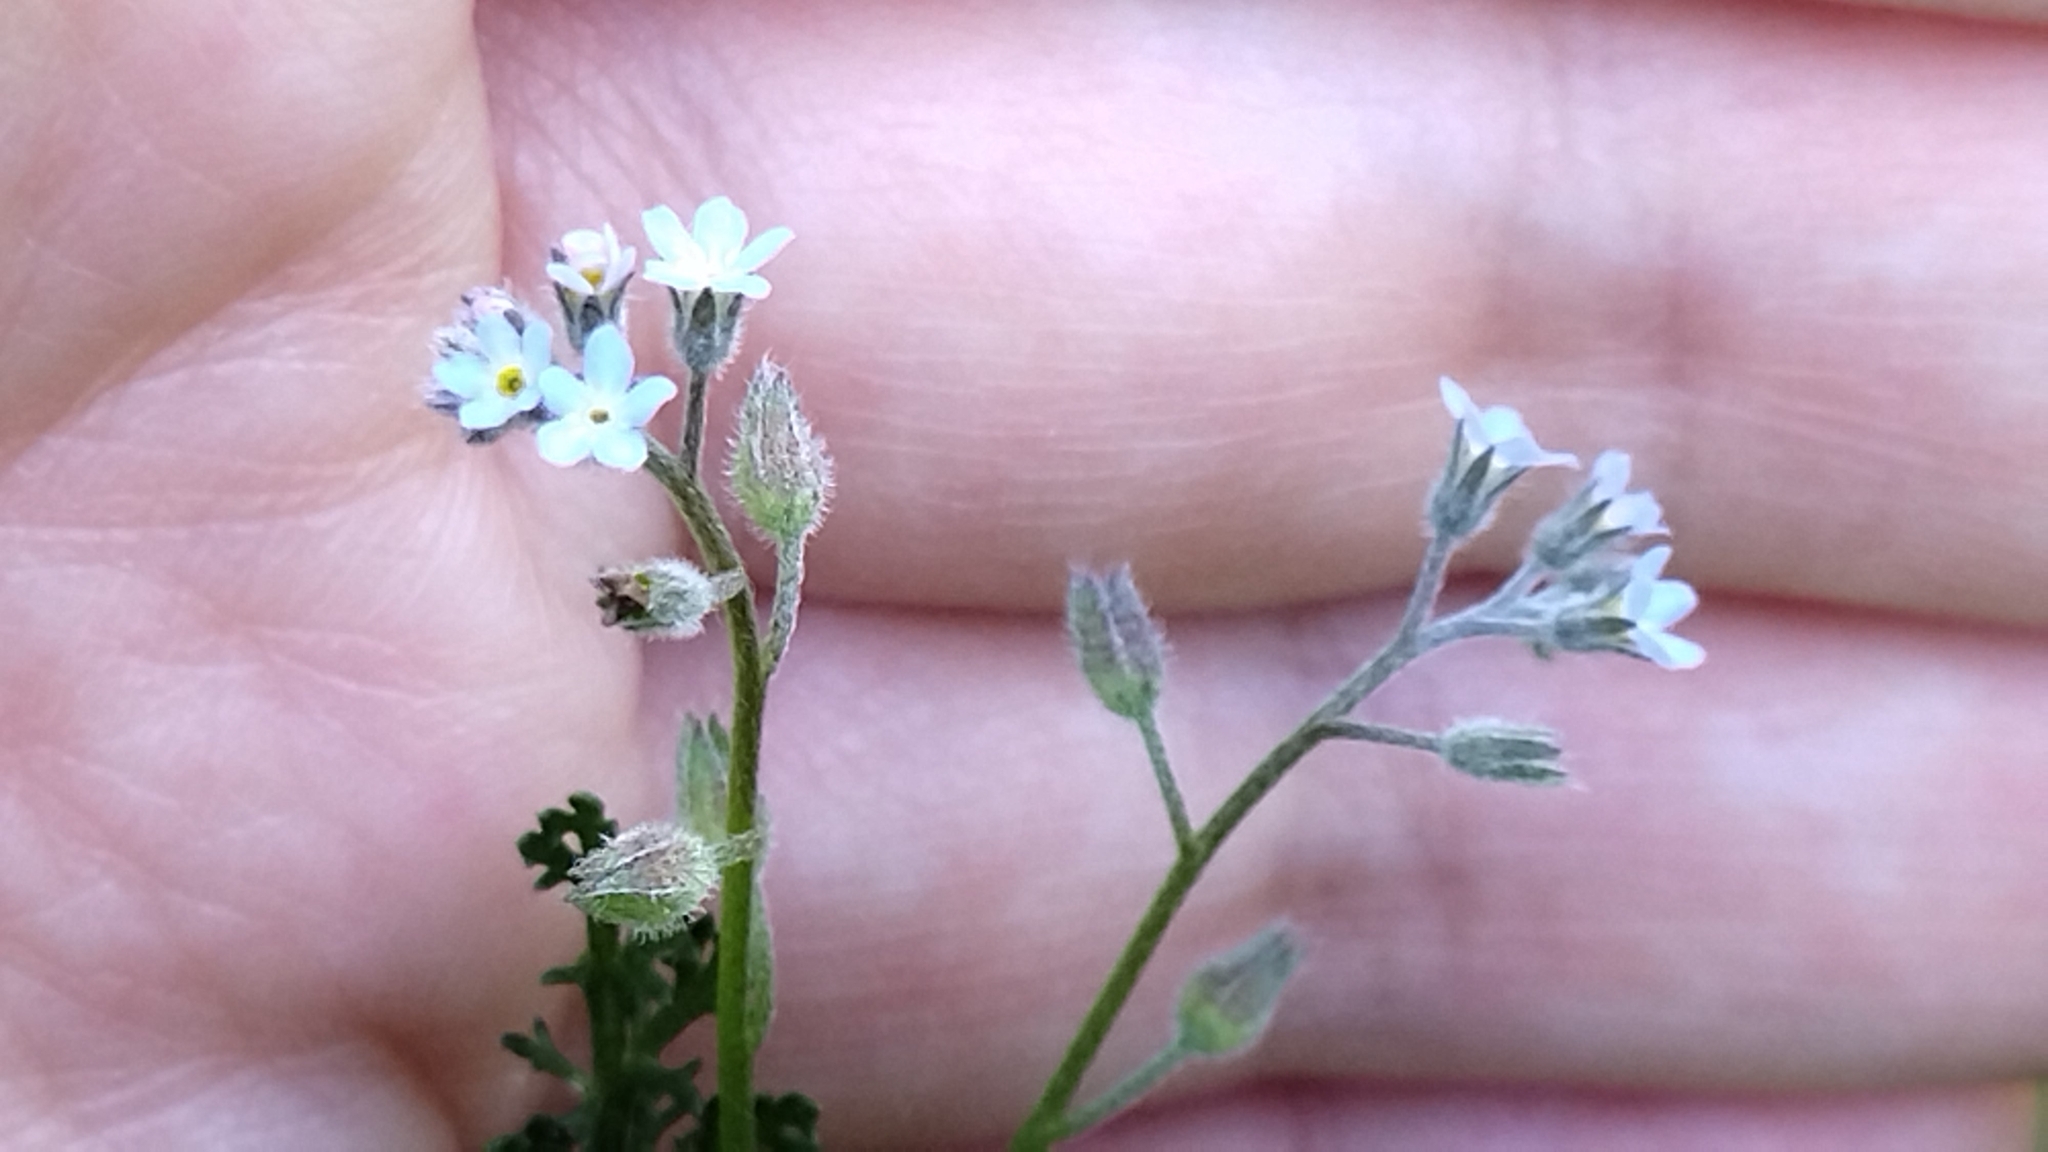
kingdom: Plantae
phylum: Tracheophyta
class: Magnoliopsida
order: Boraginales
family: Boraginaceae
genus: Myosotis
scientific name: Myosotis arvensis
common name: Field forget-me-not
